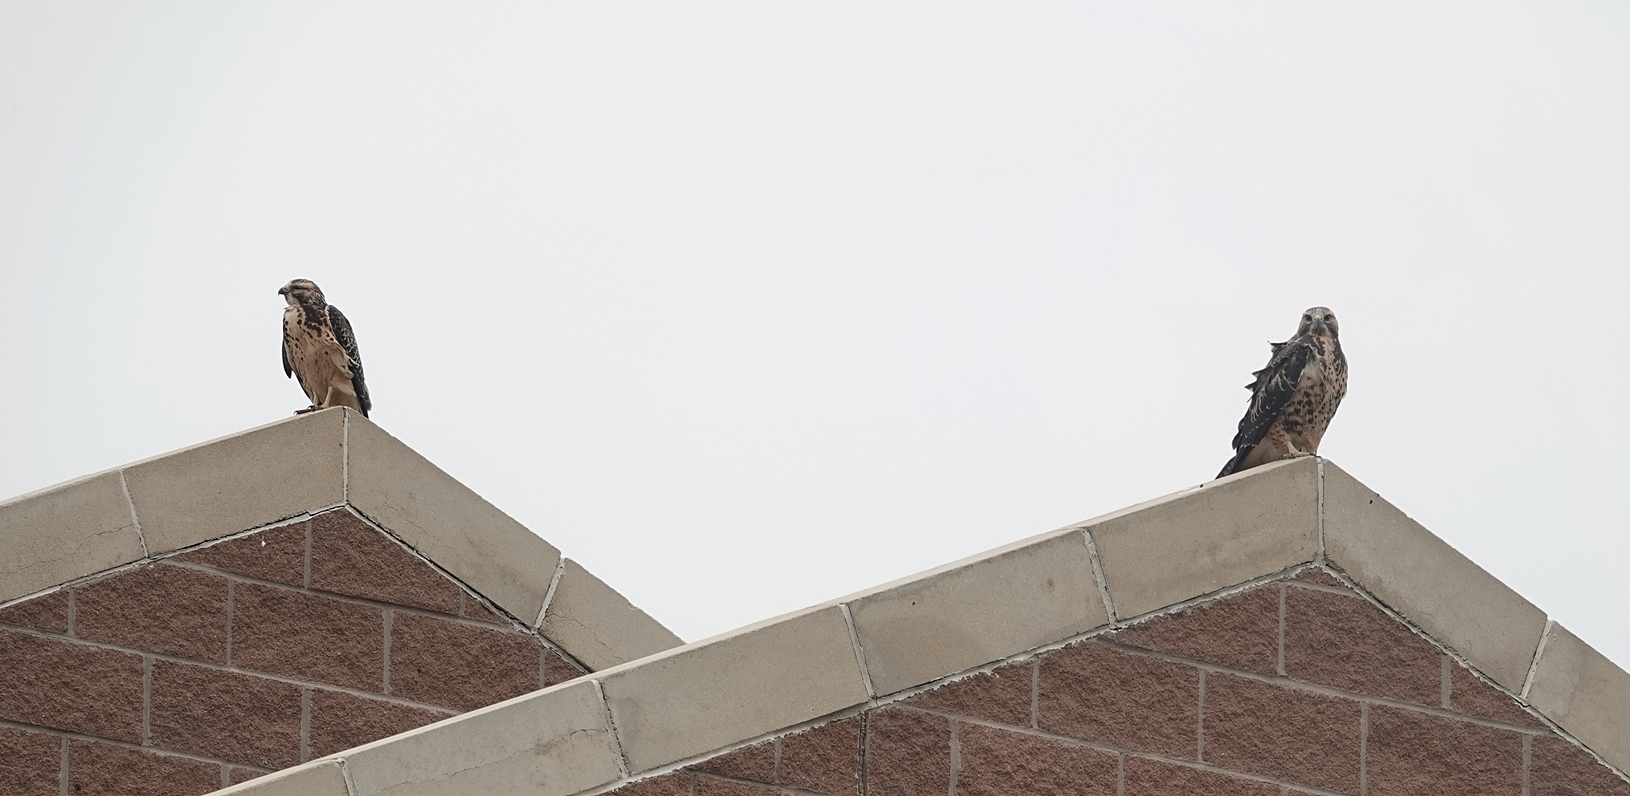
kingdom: Animalia
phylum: Chordata
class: Aves
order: Accipitriformes
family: Accipitridae
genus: Buteo
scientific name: Buteo swainsoni
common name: Swainson's hawk
